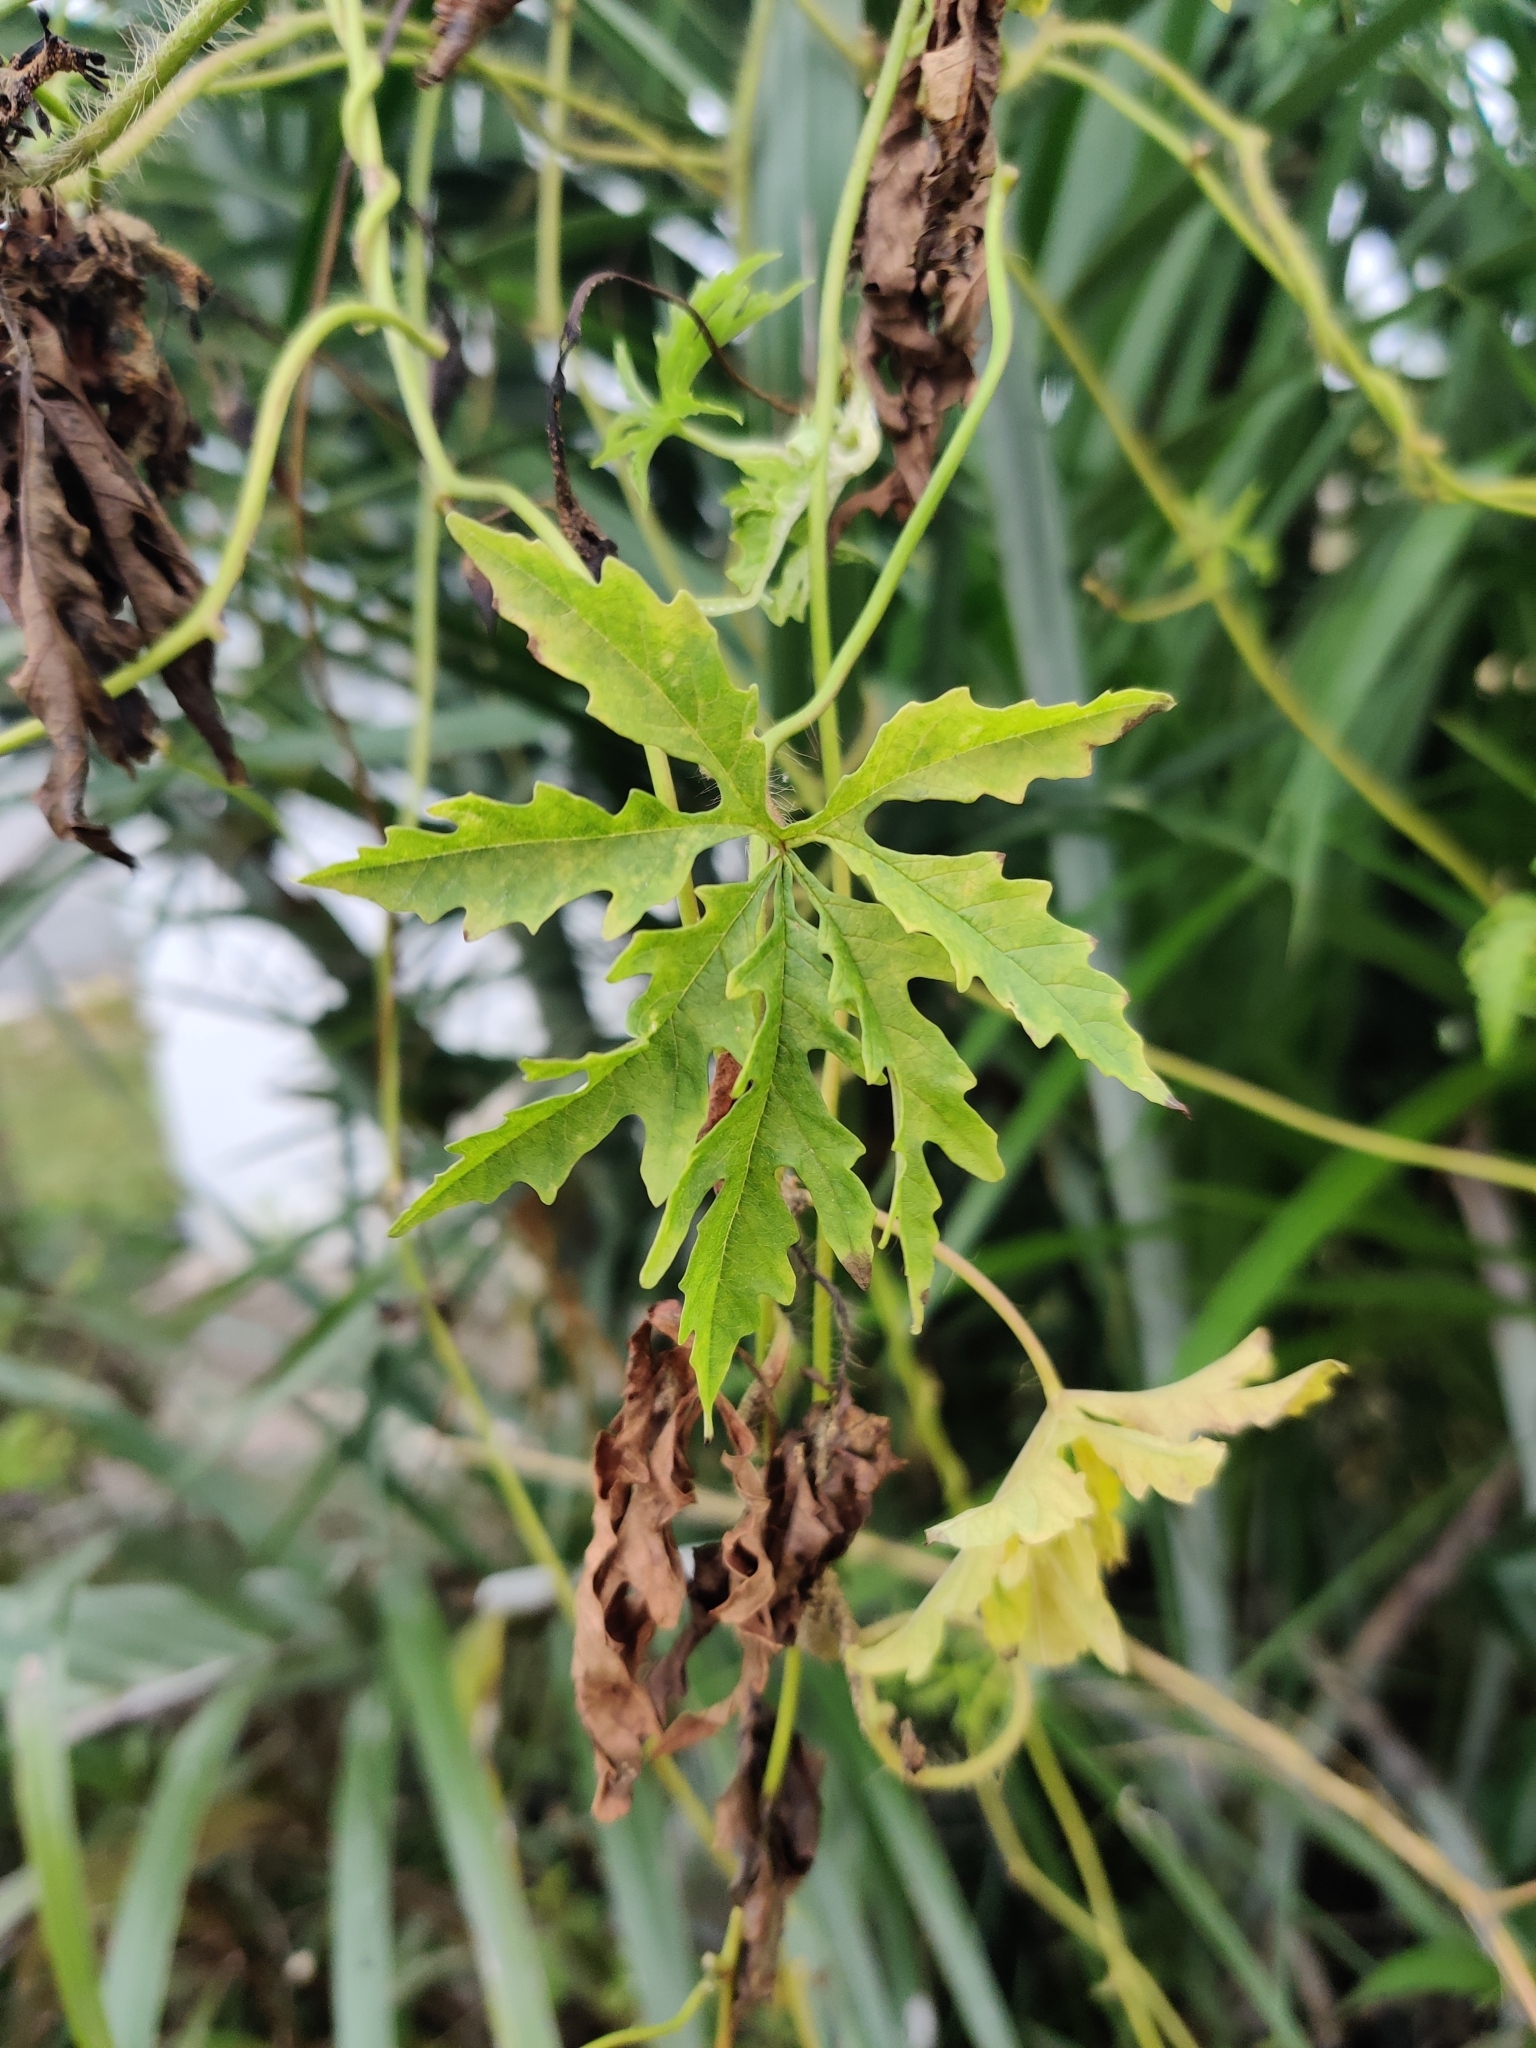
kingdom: Plantae
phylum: Tracheophyta
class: Magnoliopsida
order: Solanales
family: Convolvulaceae
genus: Distimake
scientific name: Distimake dissectus
